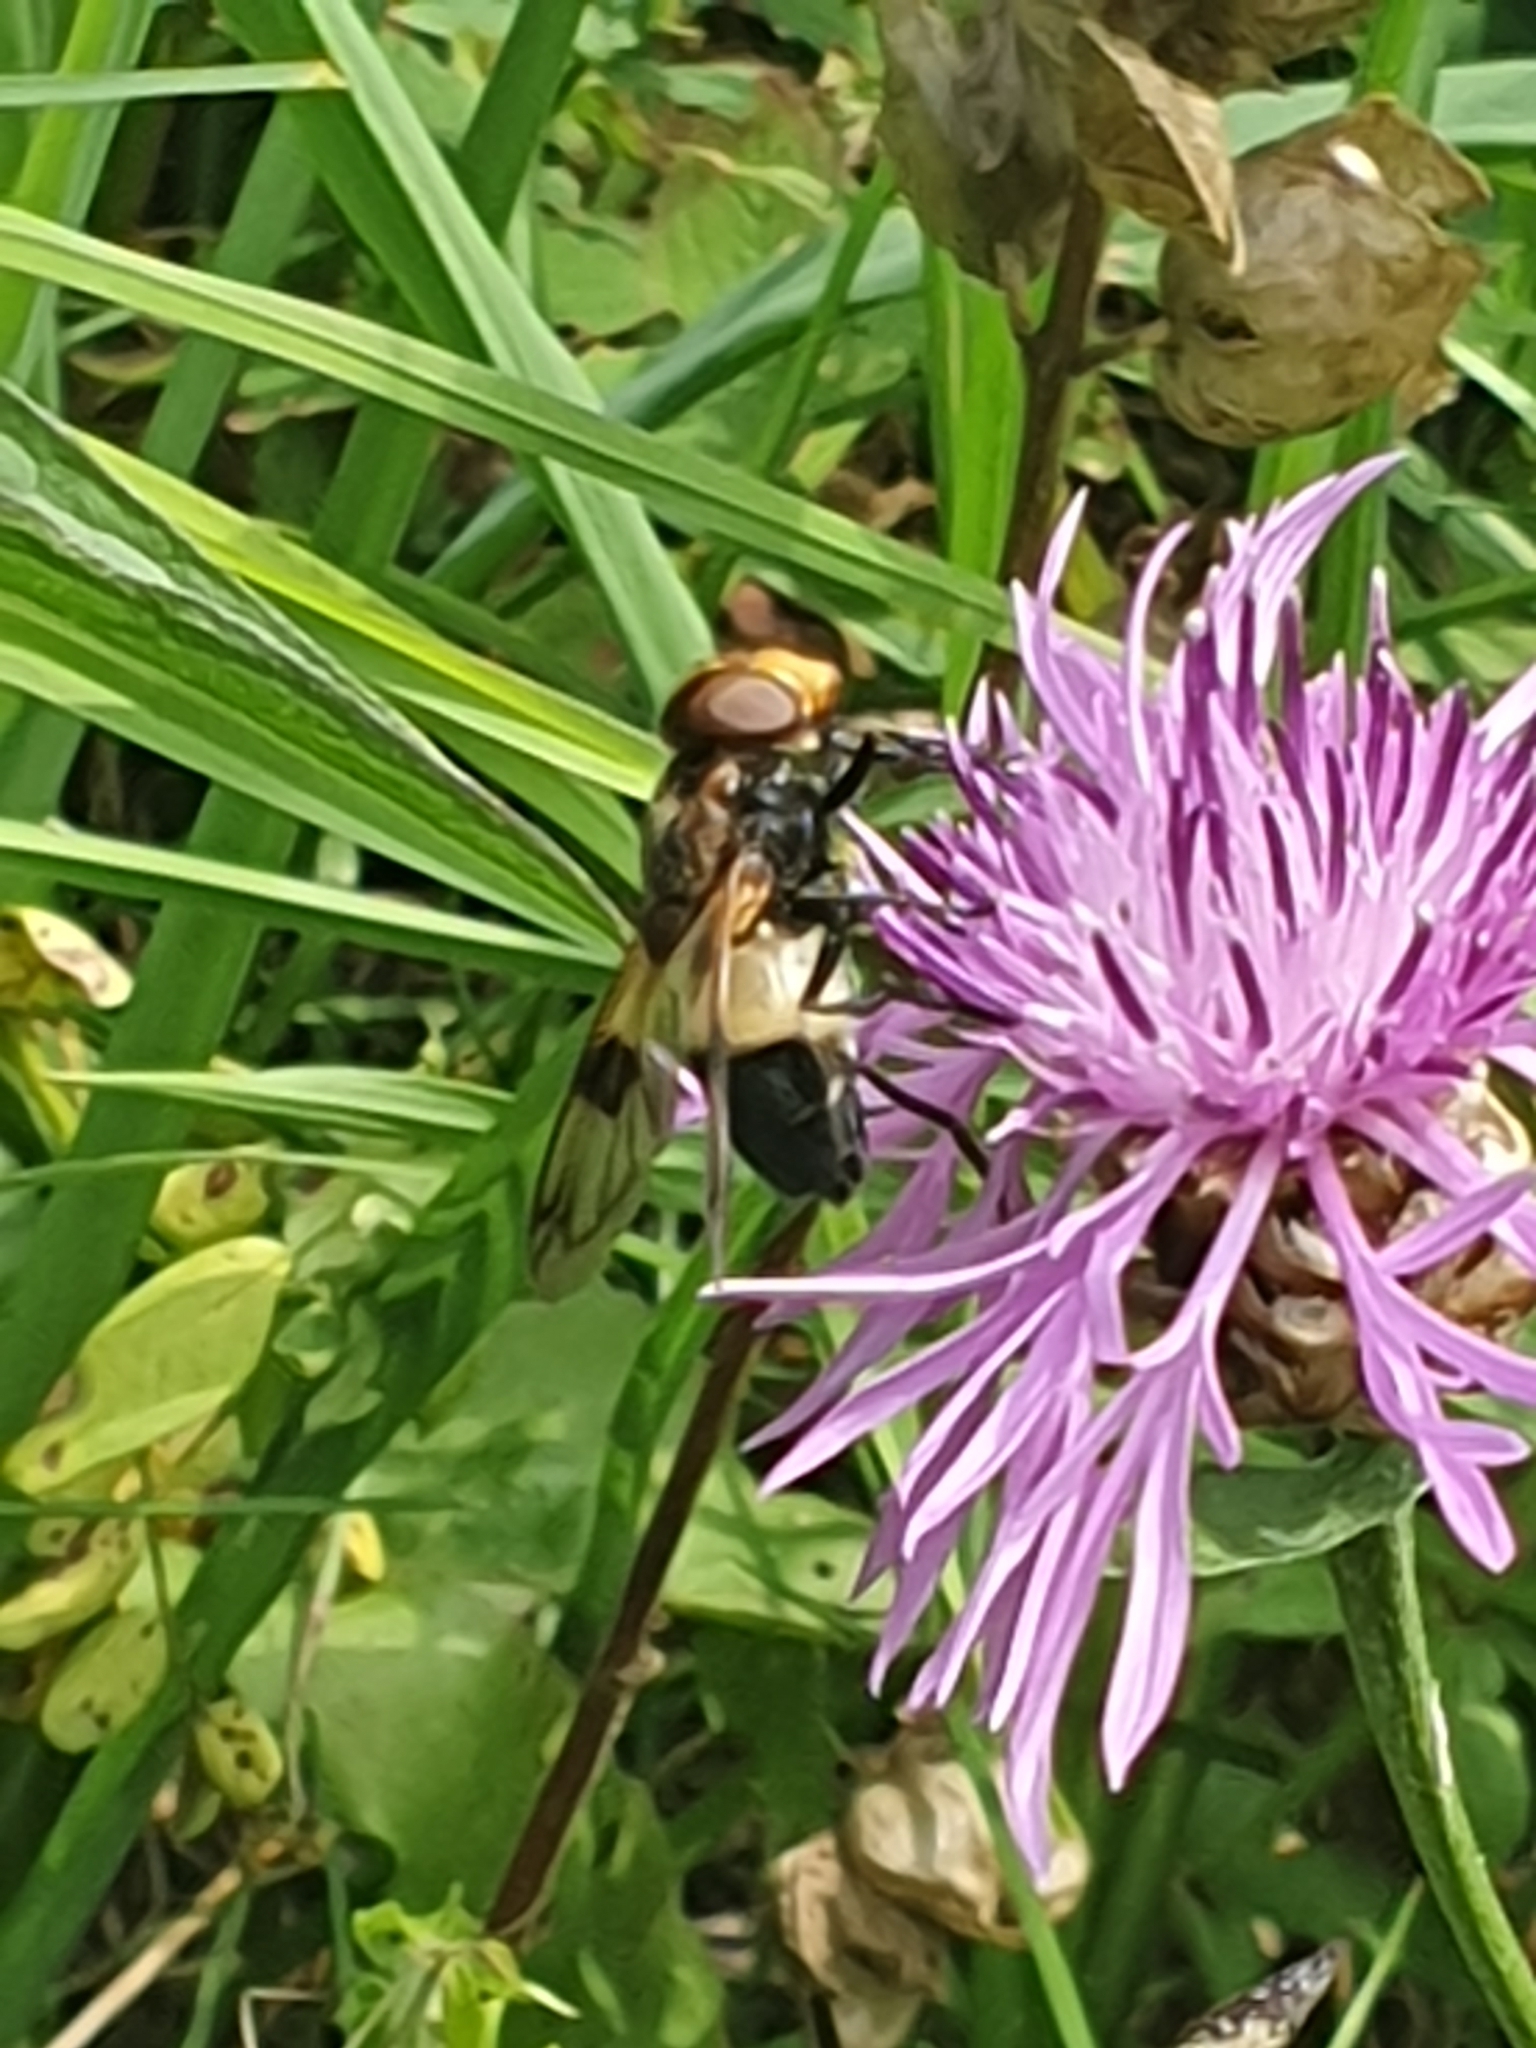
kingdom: Animalia
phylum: Arthropoda
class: Insecta
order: Diptera
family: Syrphidae
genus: Volucella
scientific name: Volucella pellucens
